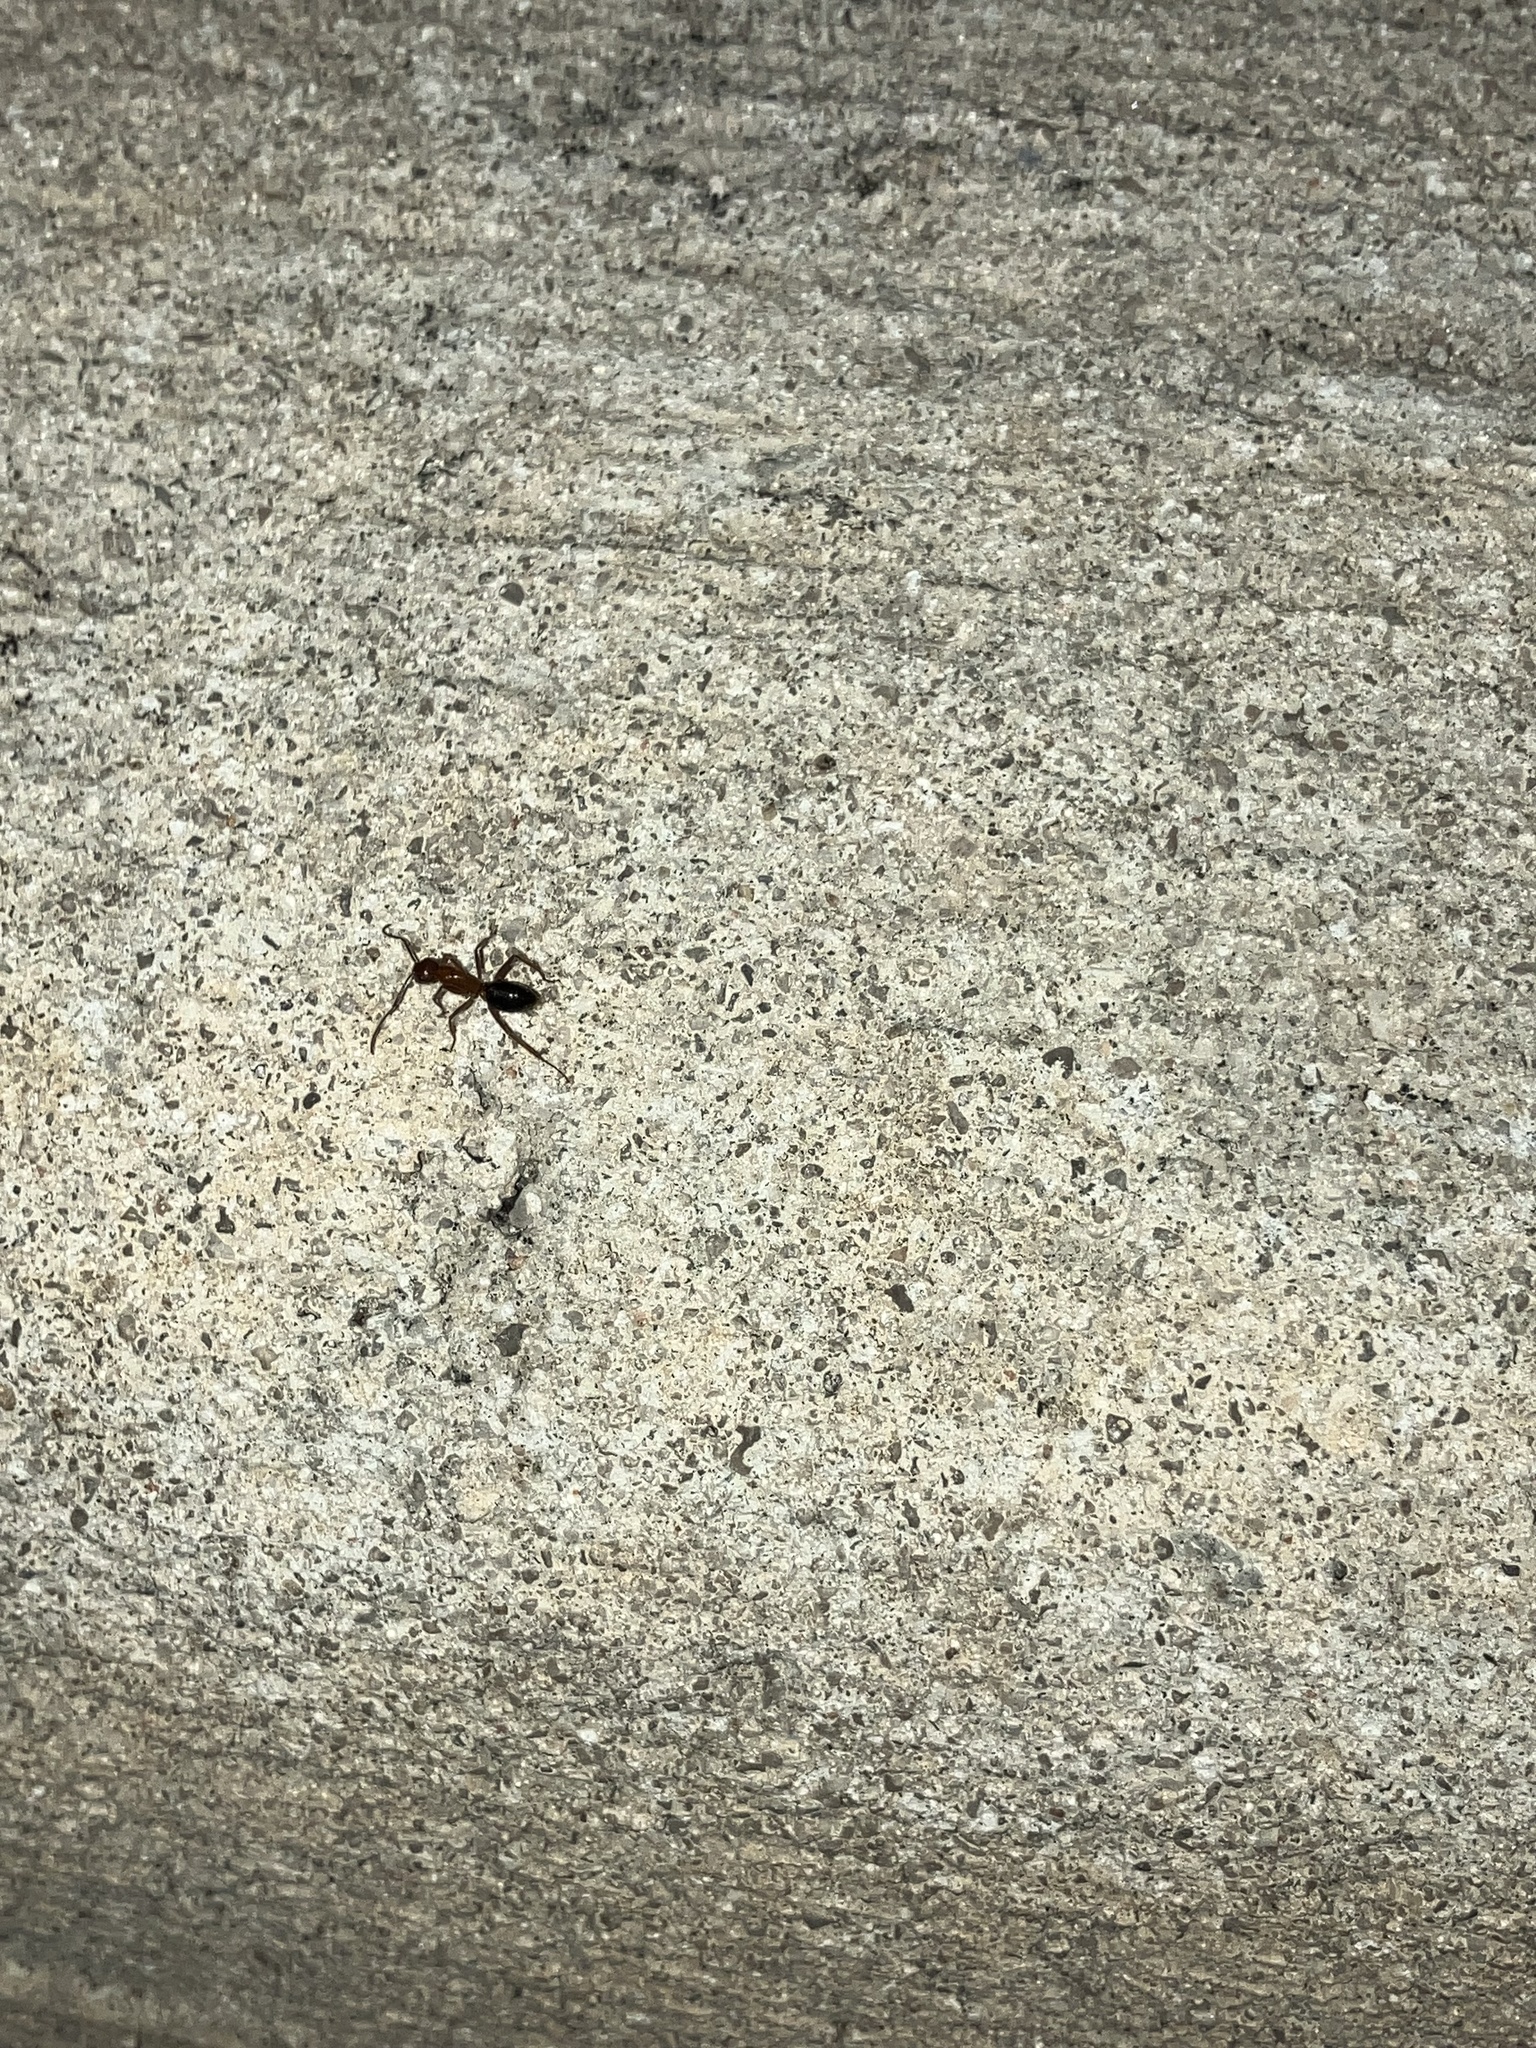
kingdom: Animalia
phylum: Arthropoda
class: Insecta
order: Hymenoptera
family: Formicidae
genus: Camponotus
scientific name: Camponotus floridanus
